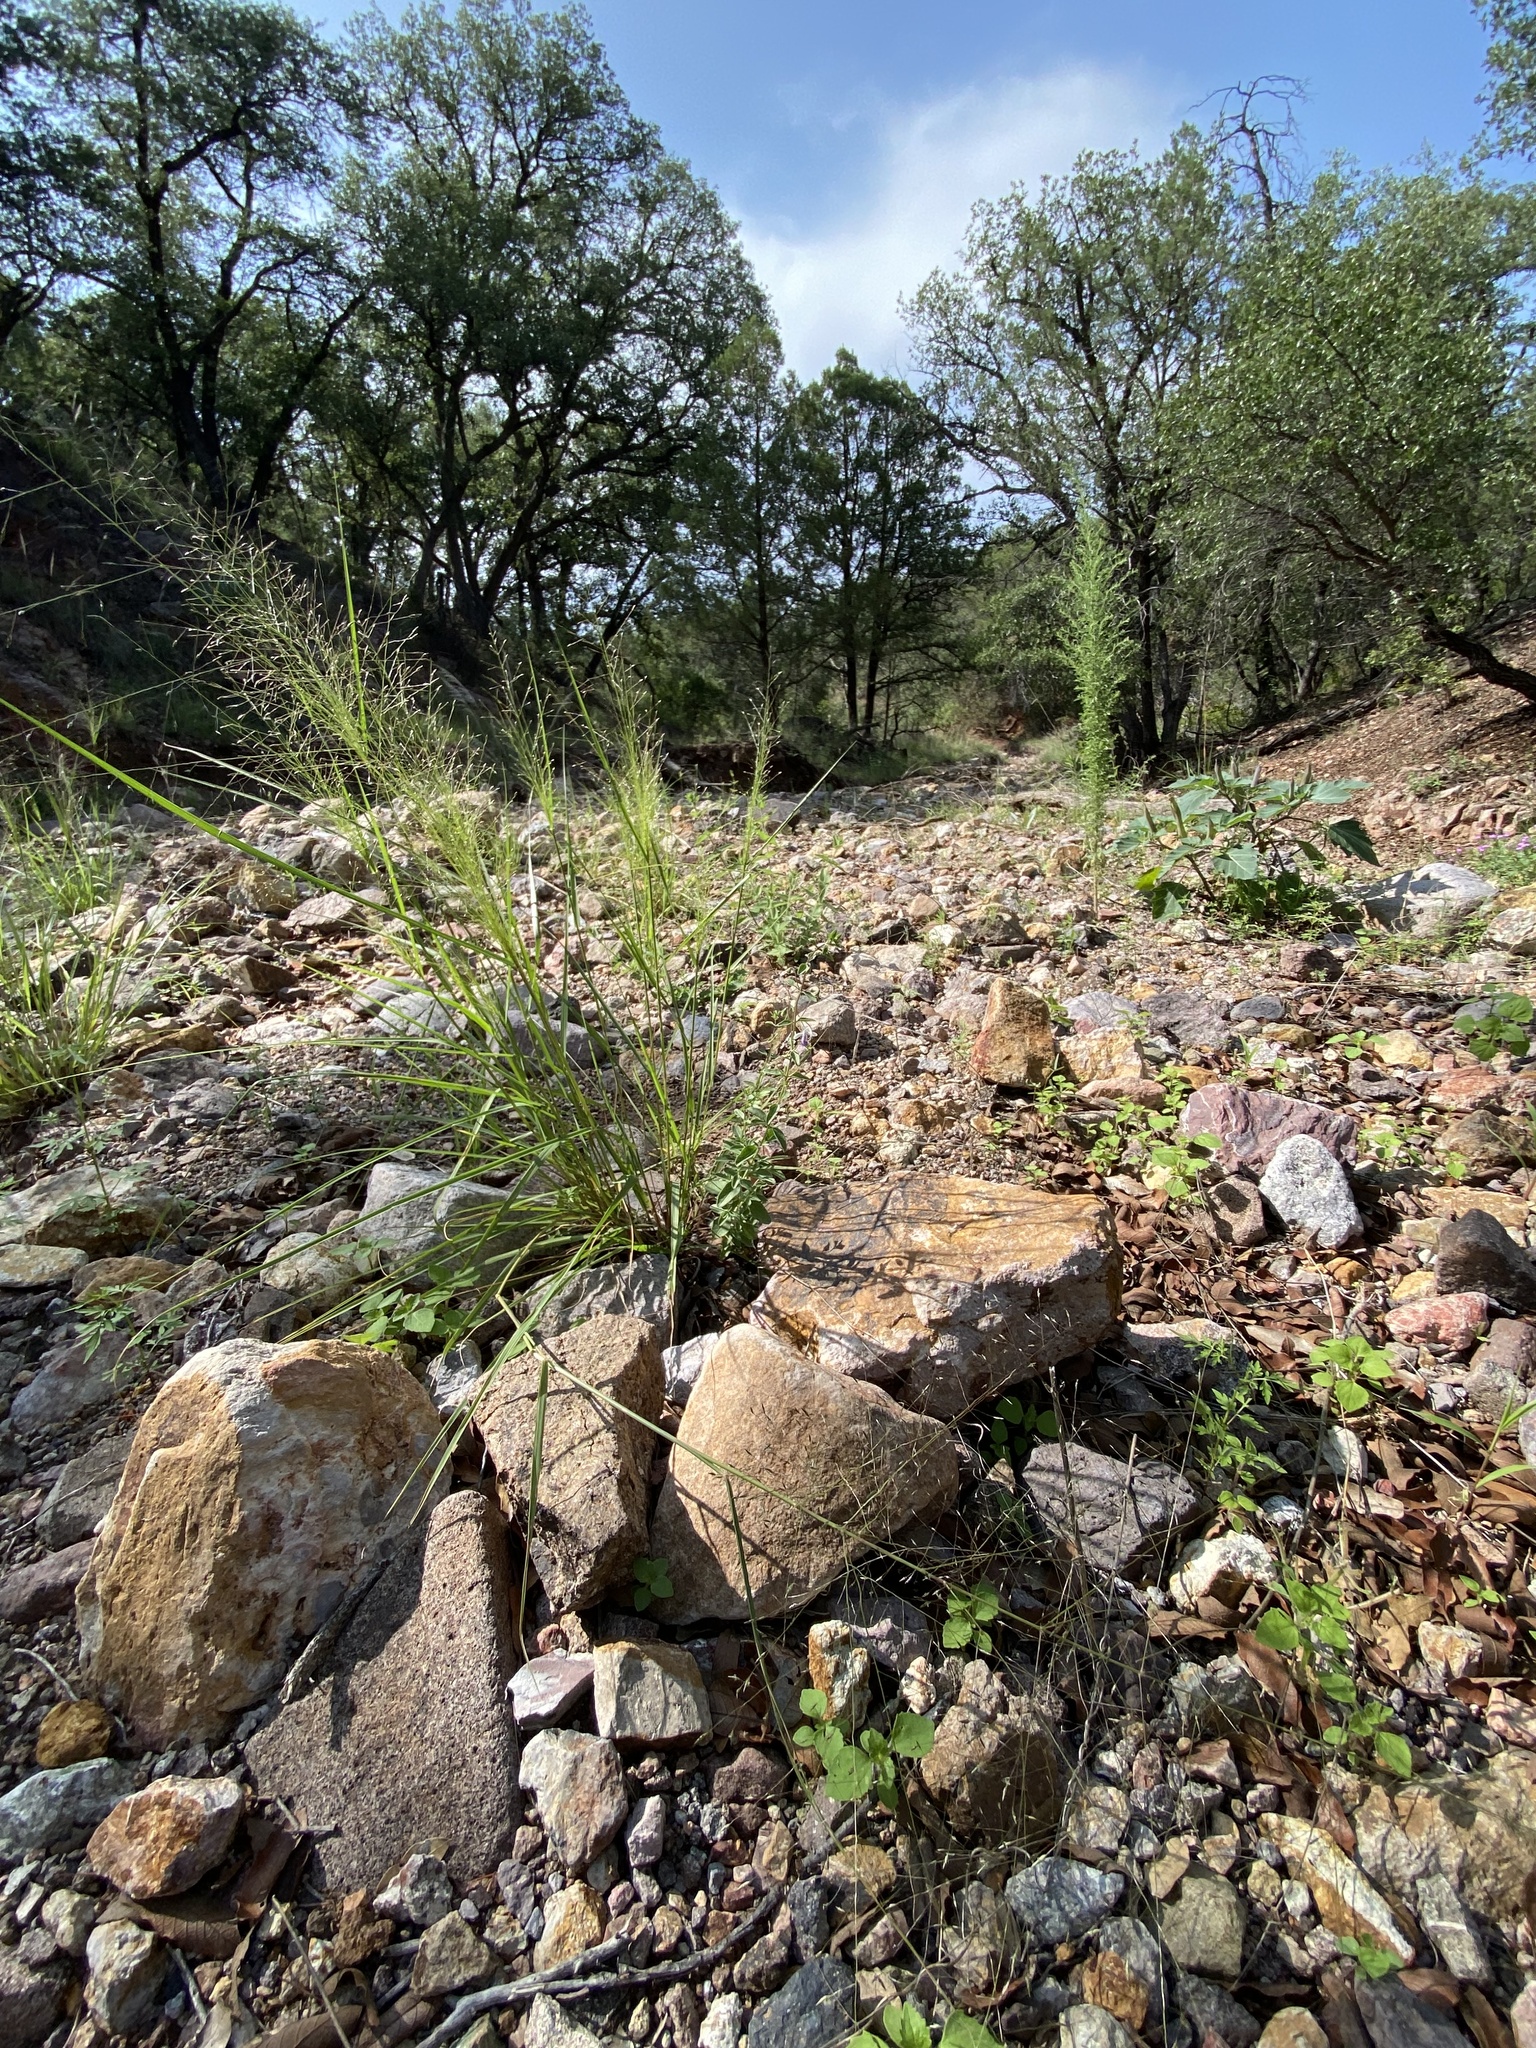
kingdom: Plantae
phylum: Tracheophyta
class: Magnoliopsida
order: Lamiales
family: Lamiaceae
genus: Trichostema
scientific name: Trichostema arizonicum
